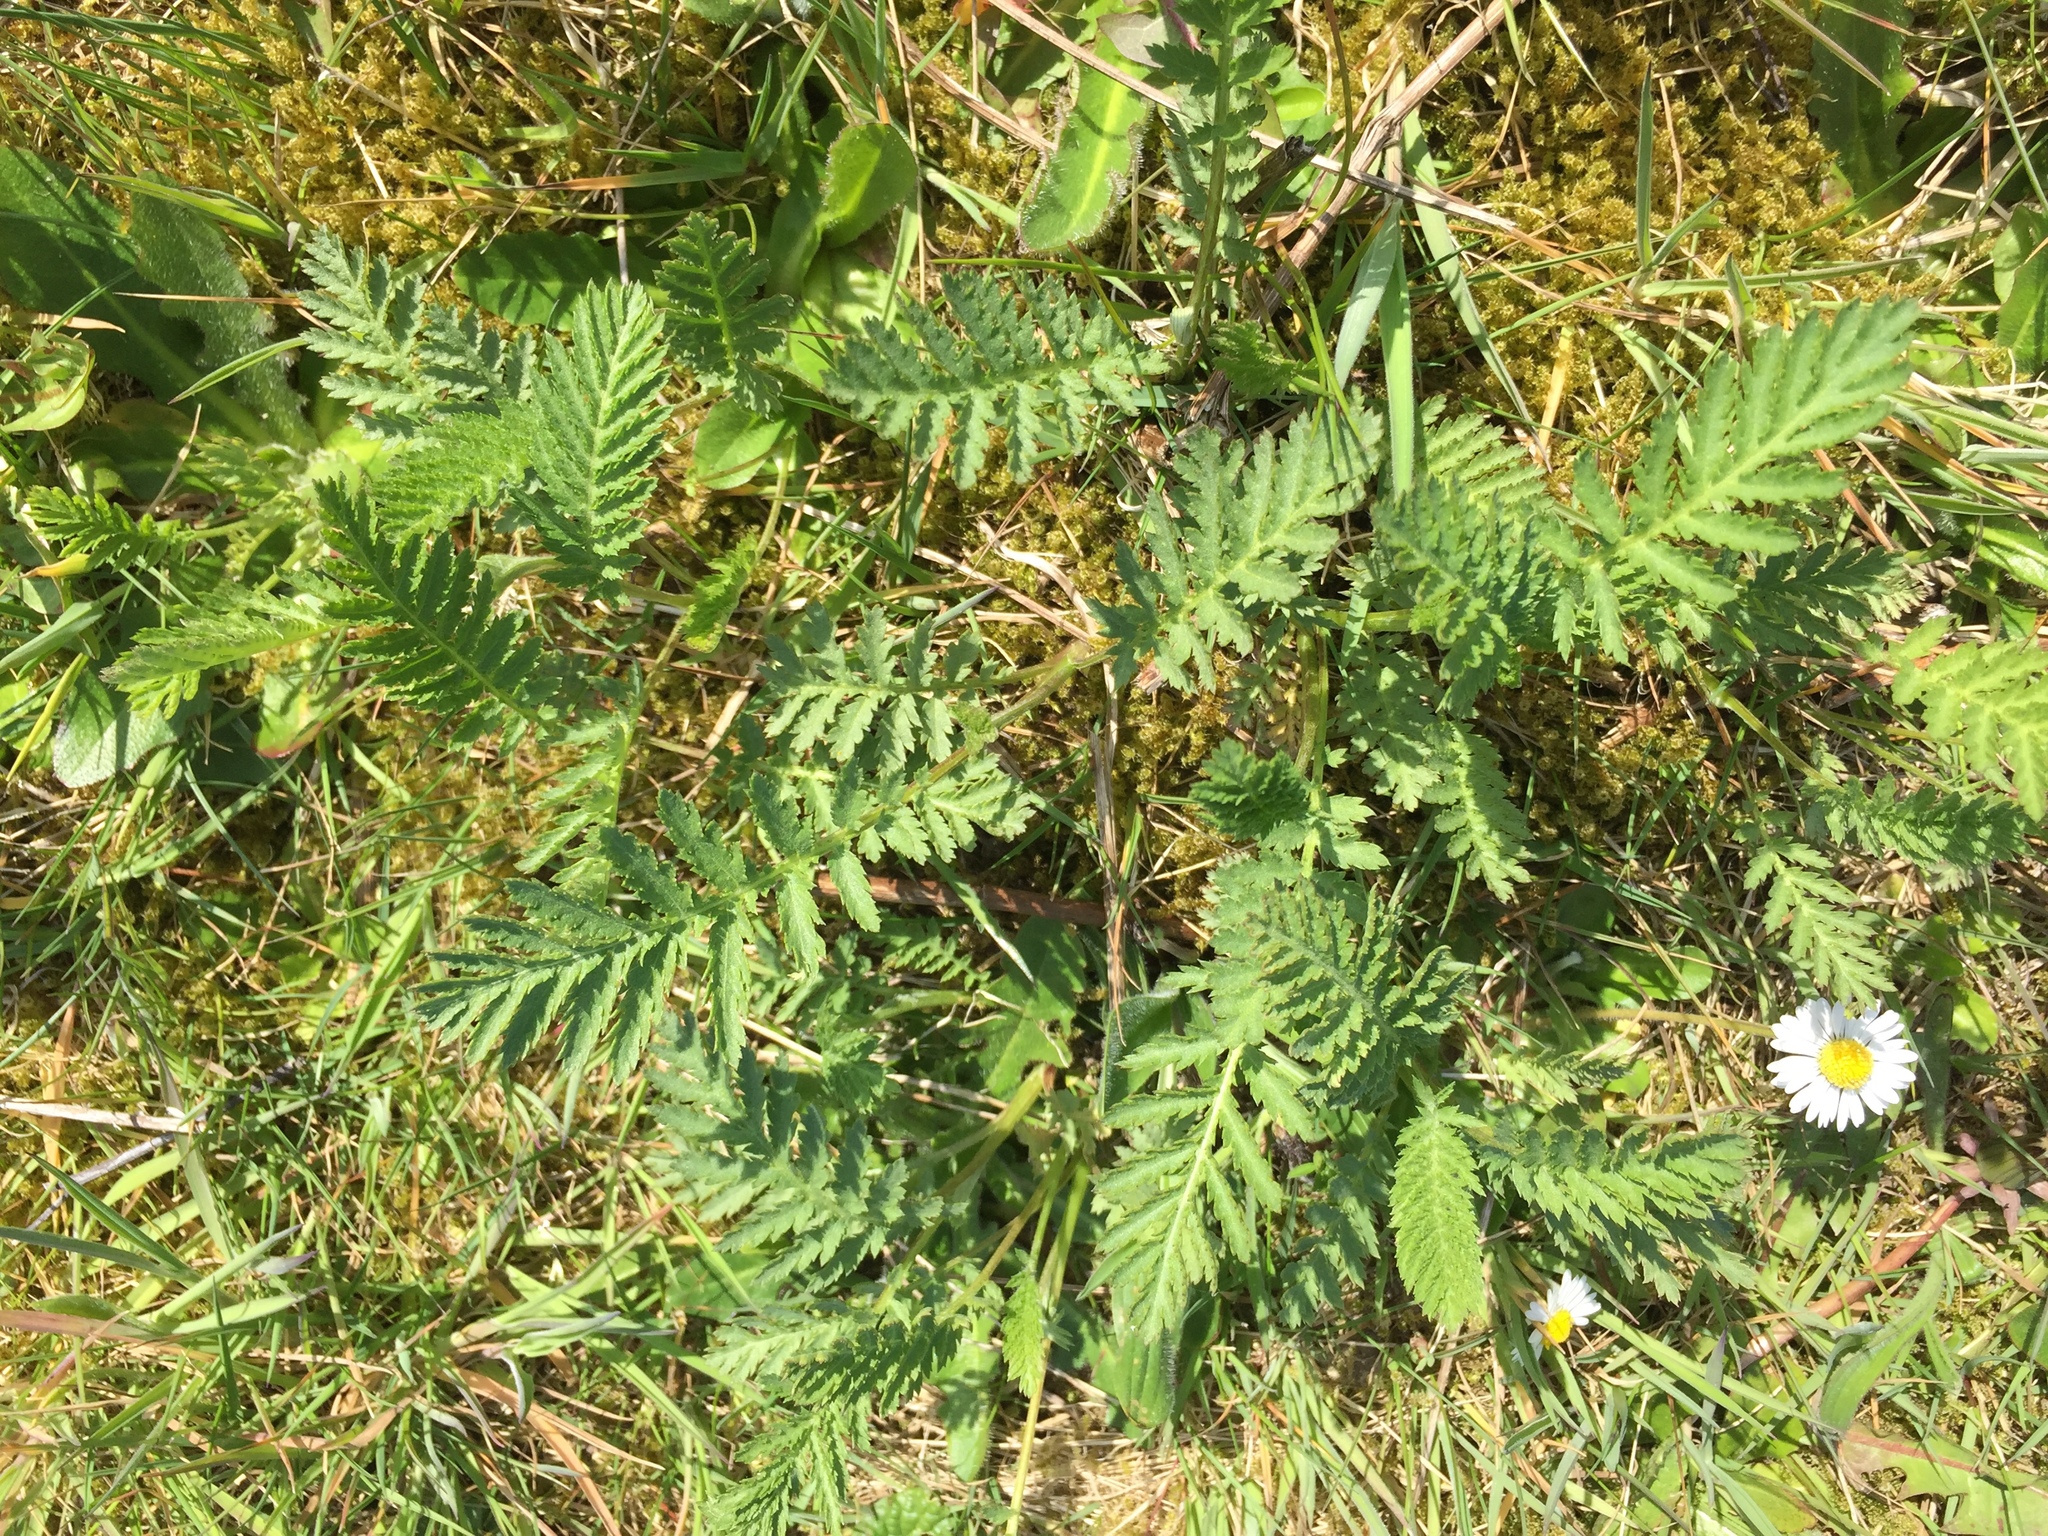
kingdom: Plantae
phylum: Tracheophyta
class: Magnoliopsida
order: Asterales
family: Asteraceae
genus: Tanacetum
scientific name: Tanacetum vulgare
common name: Common tansy
